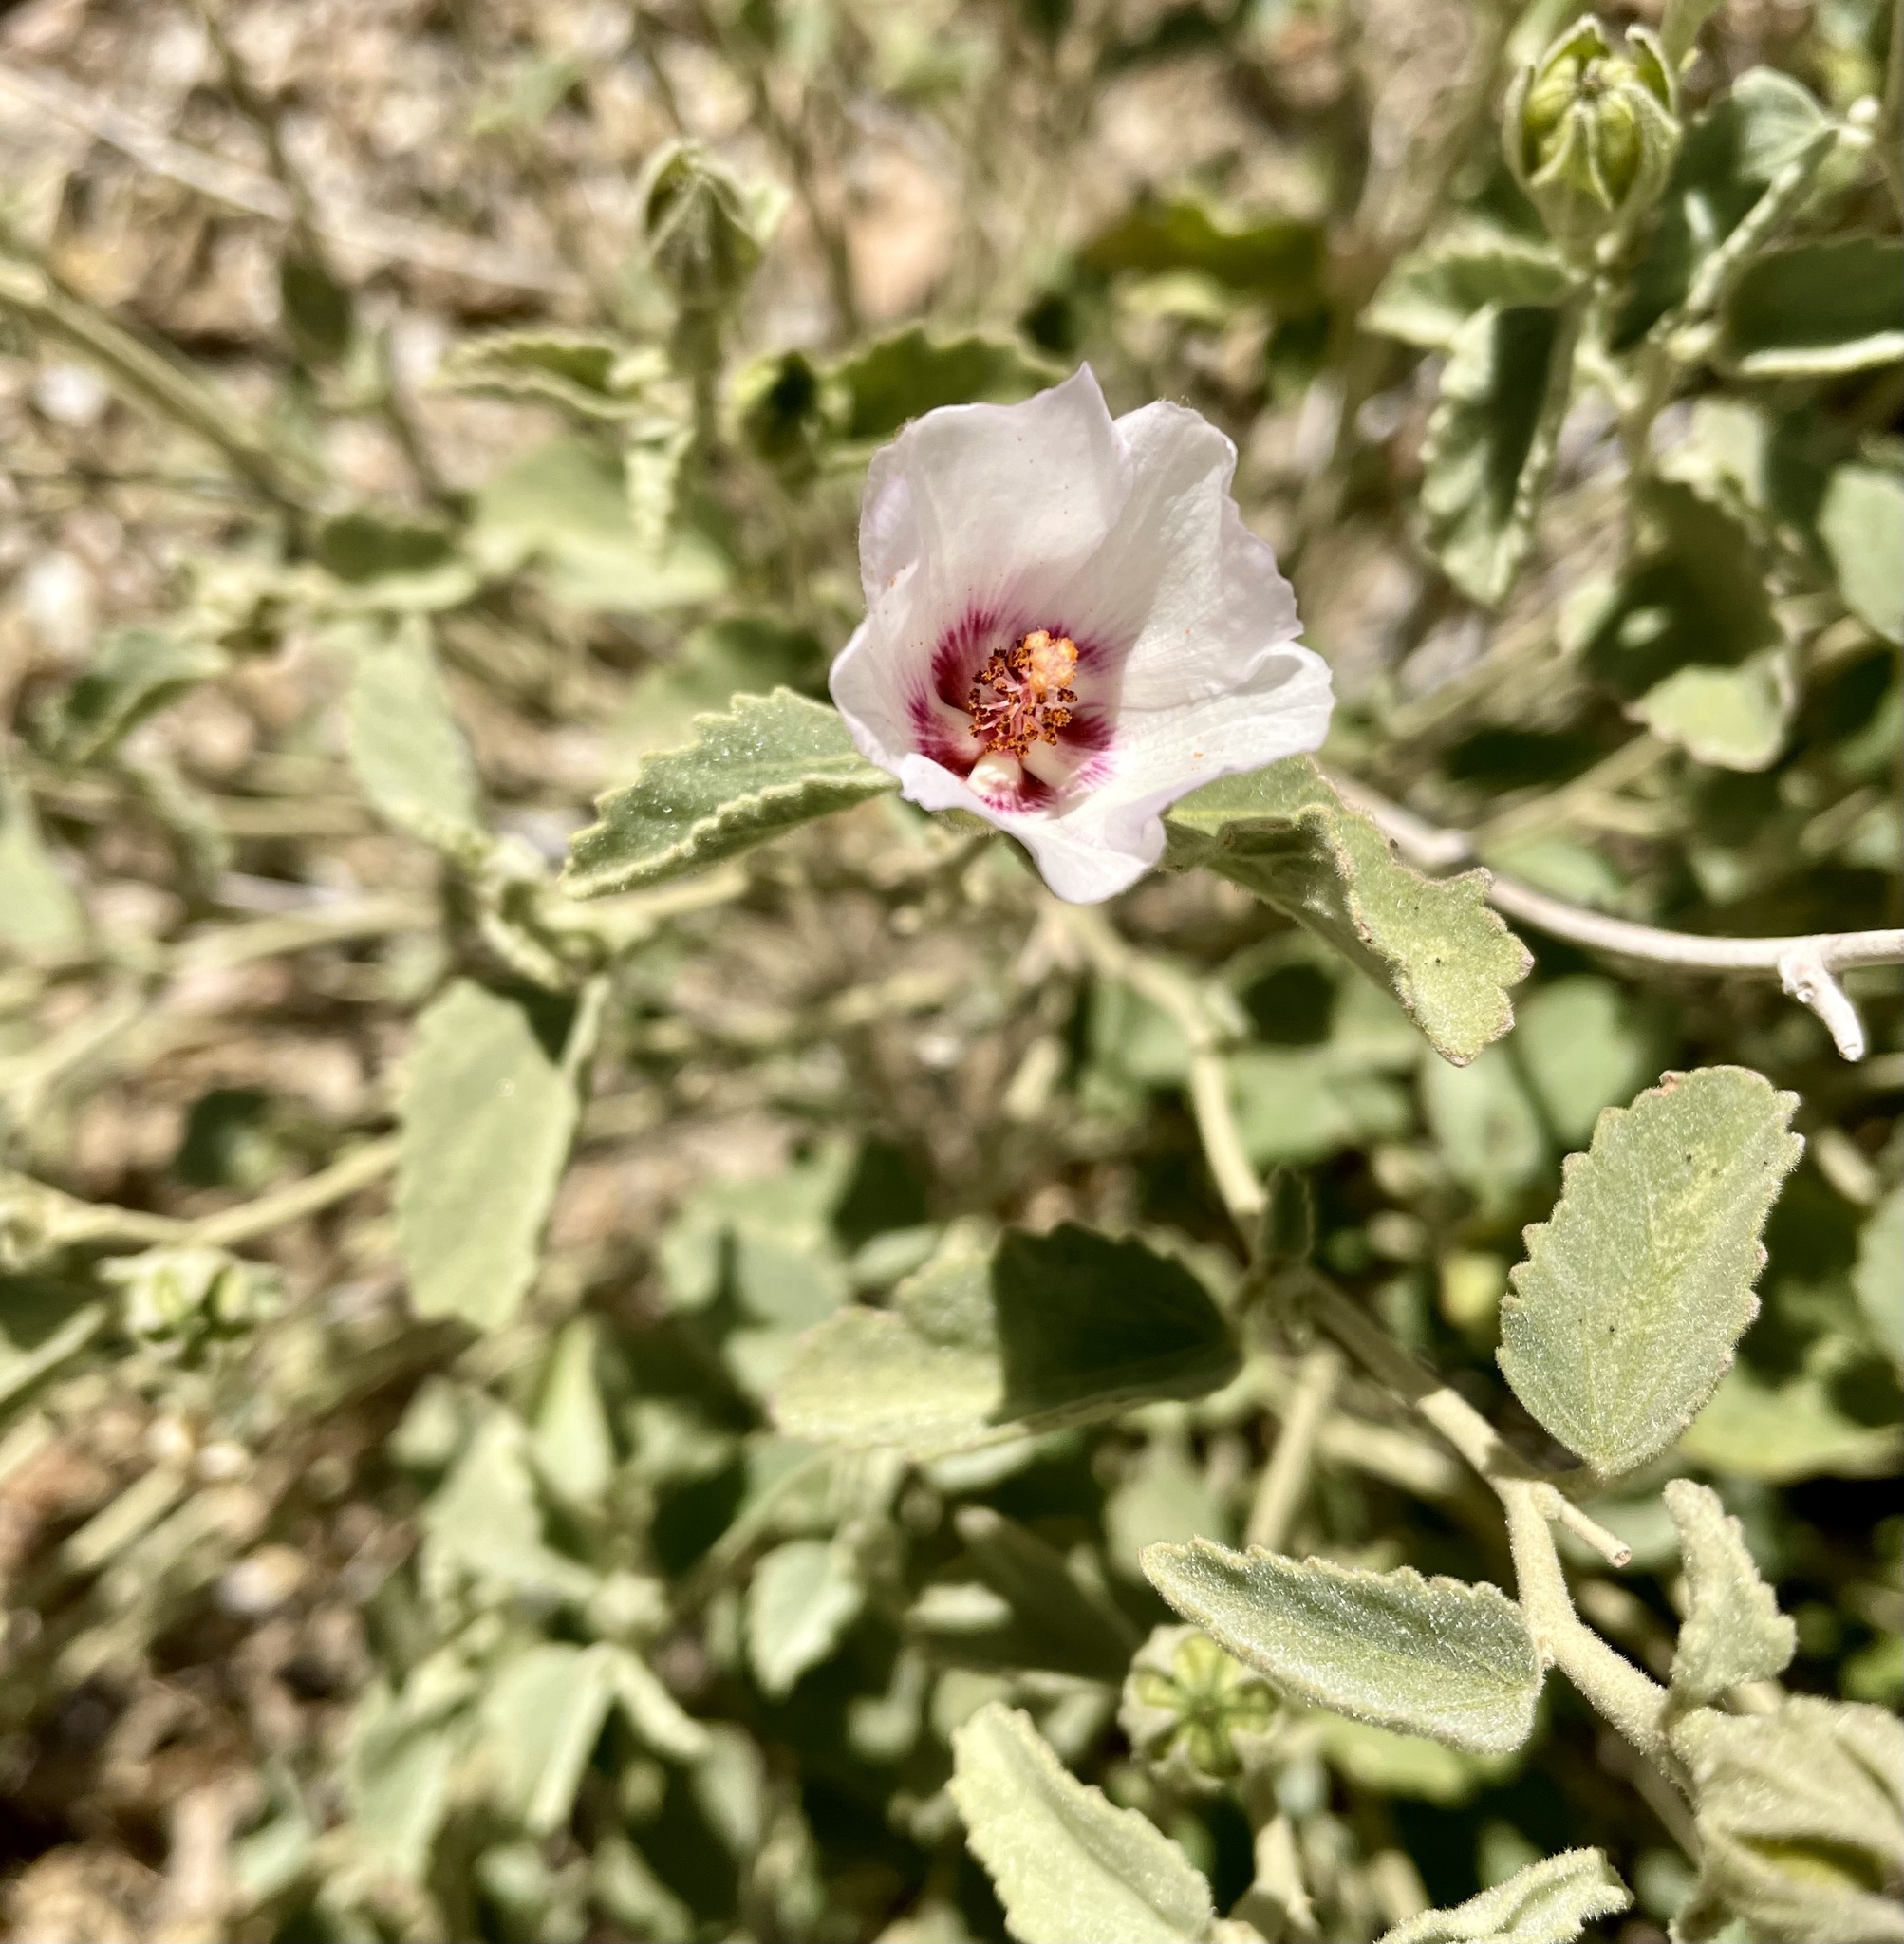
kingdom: Plantae
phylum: Tracheophyta
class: Magnoliopsida
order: Malvales
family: Malvaceae
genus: Hibiscus
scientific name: Hibiscus denudatus
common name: Paleface
